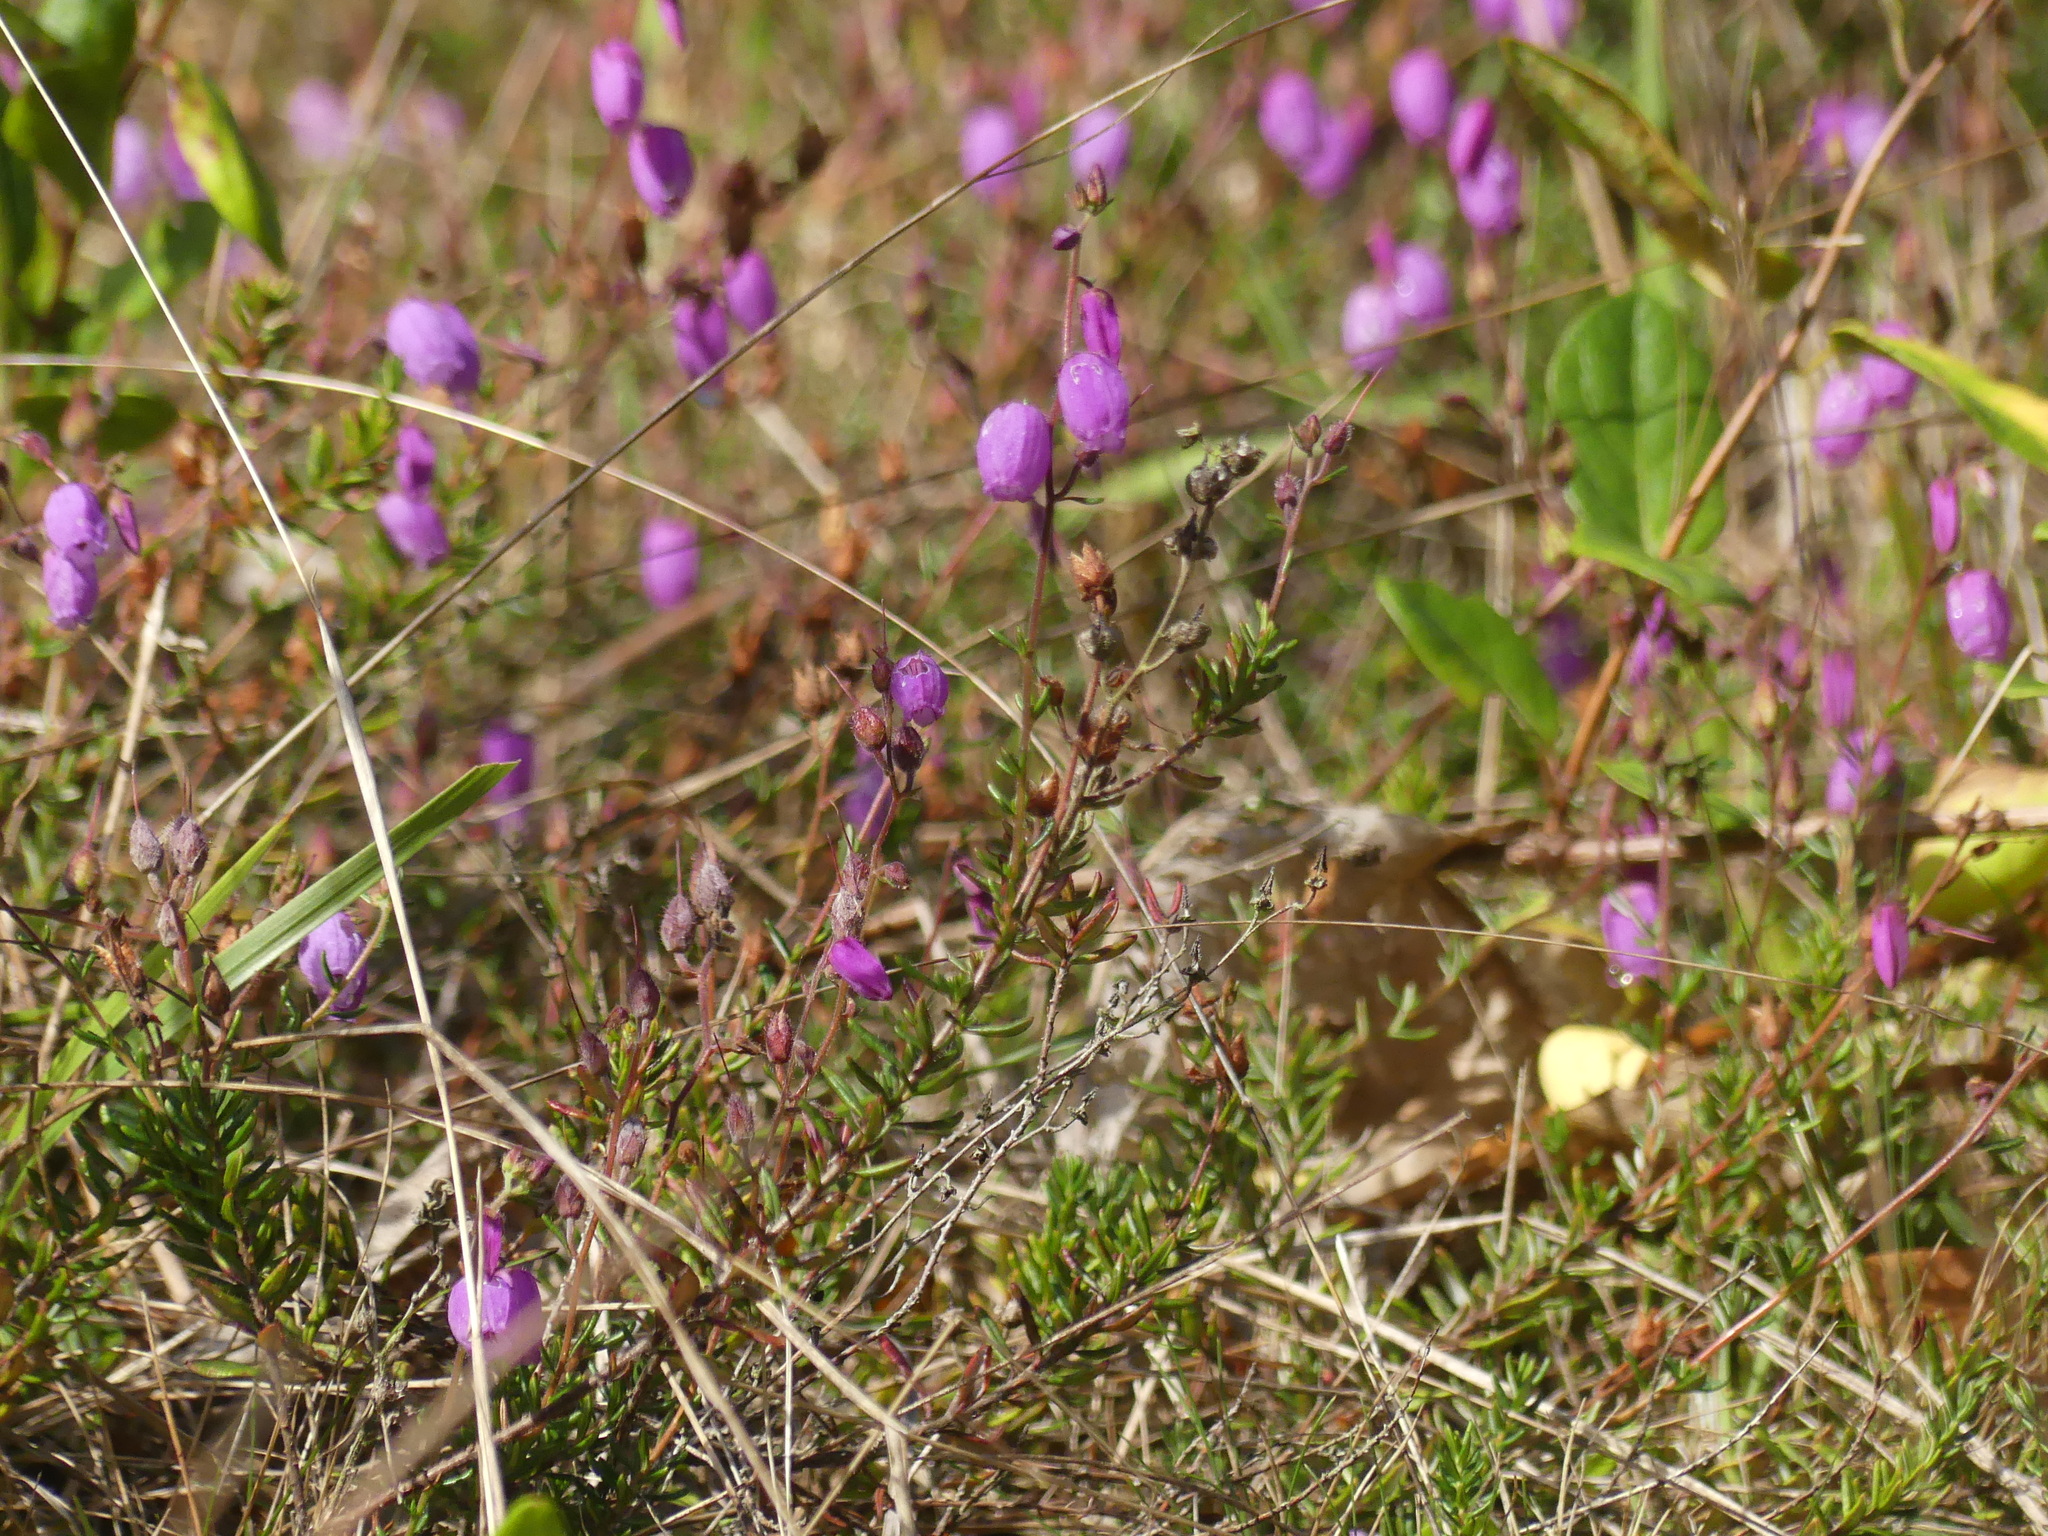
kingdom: Plantae
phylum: Tracheophyta
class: Magnoliopsida
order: Ericales
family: Ericaceae
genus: Daboecia
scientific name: Daboecia cantabrica
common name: St. dabeoc's-heath
